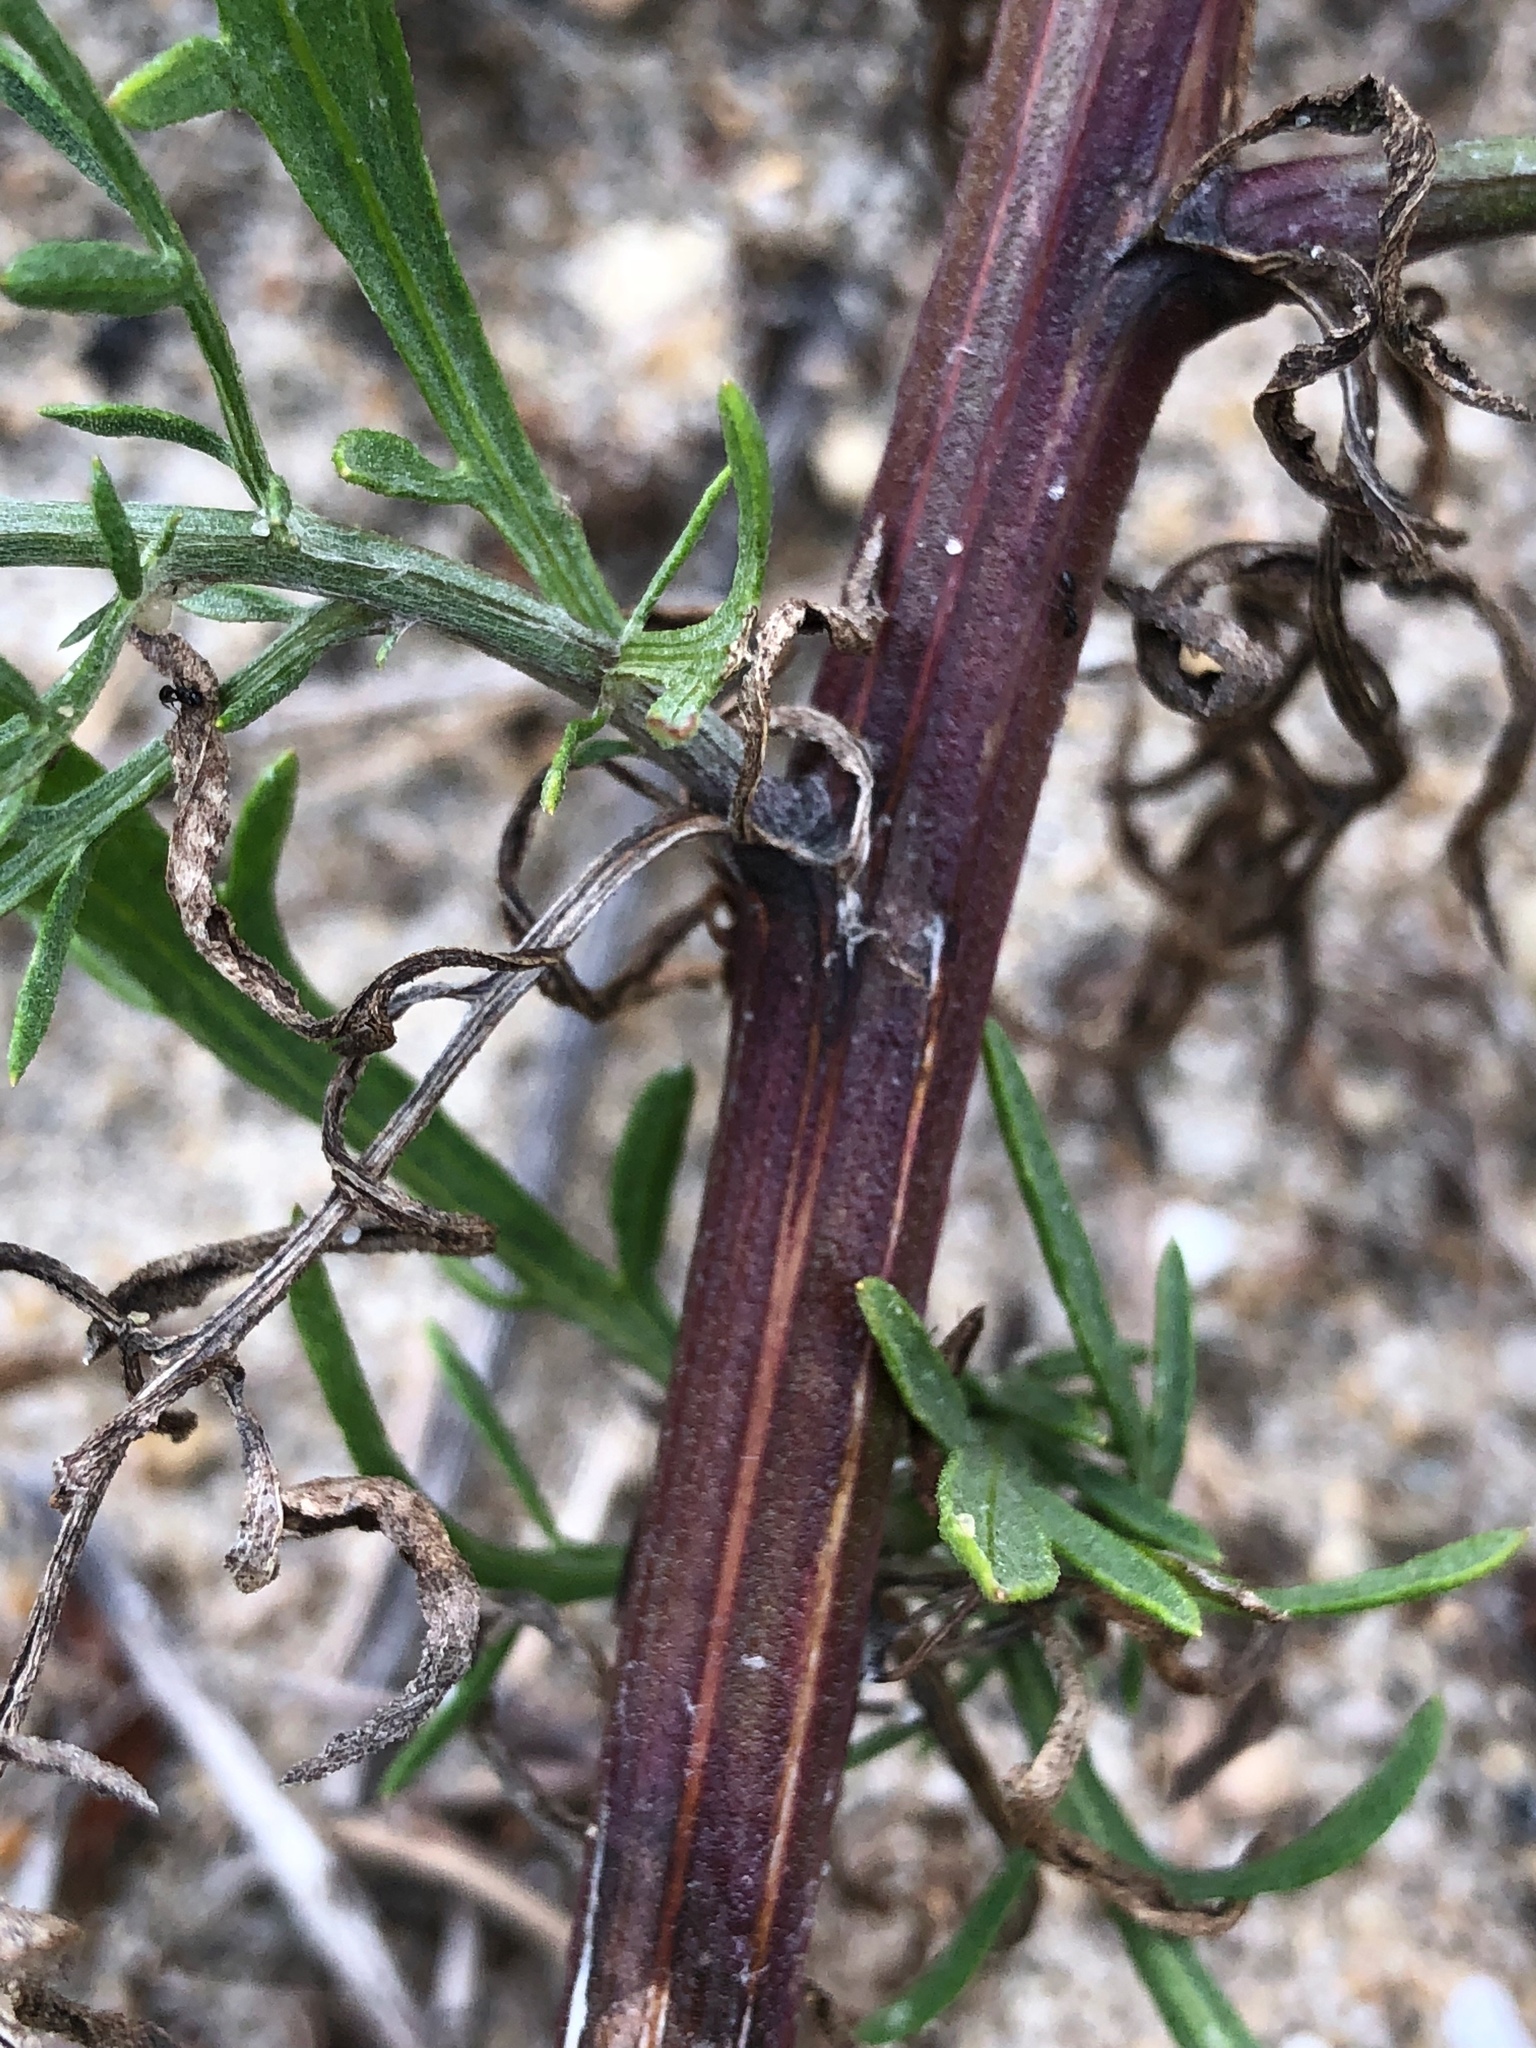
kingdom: Plantae
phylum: Tracheophyta
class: Magnoliopsida
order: Asterales
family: Asteraceae
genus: Centaurea
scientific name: Centaurea stoebe
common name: Spotted knapweed
